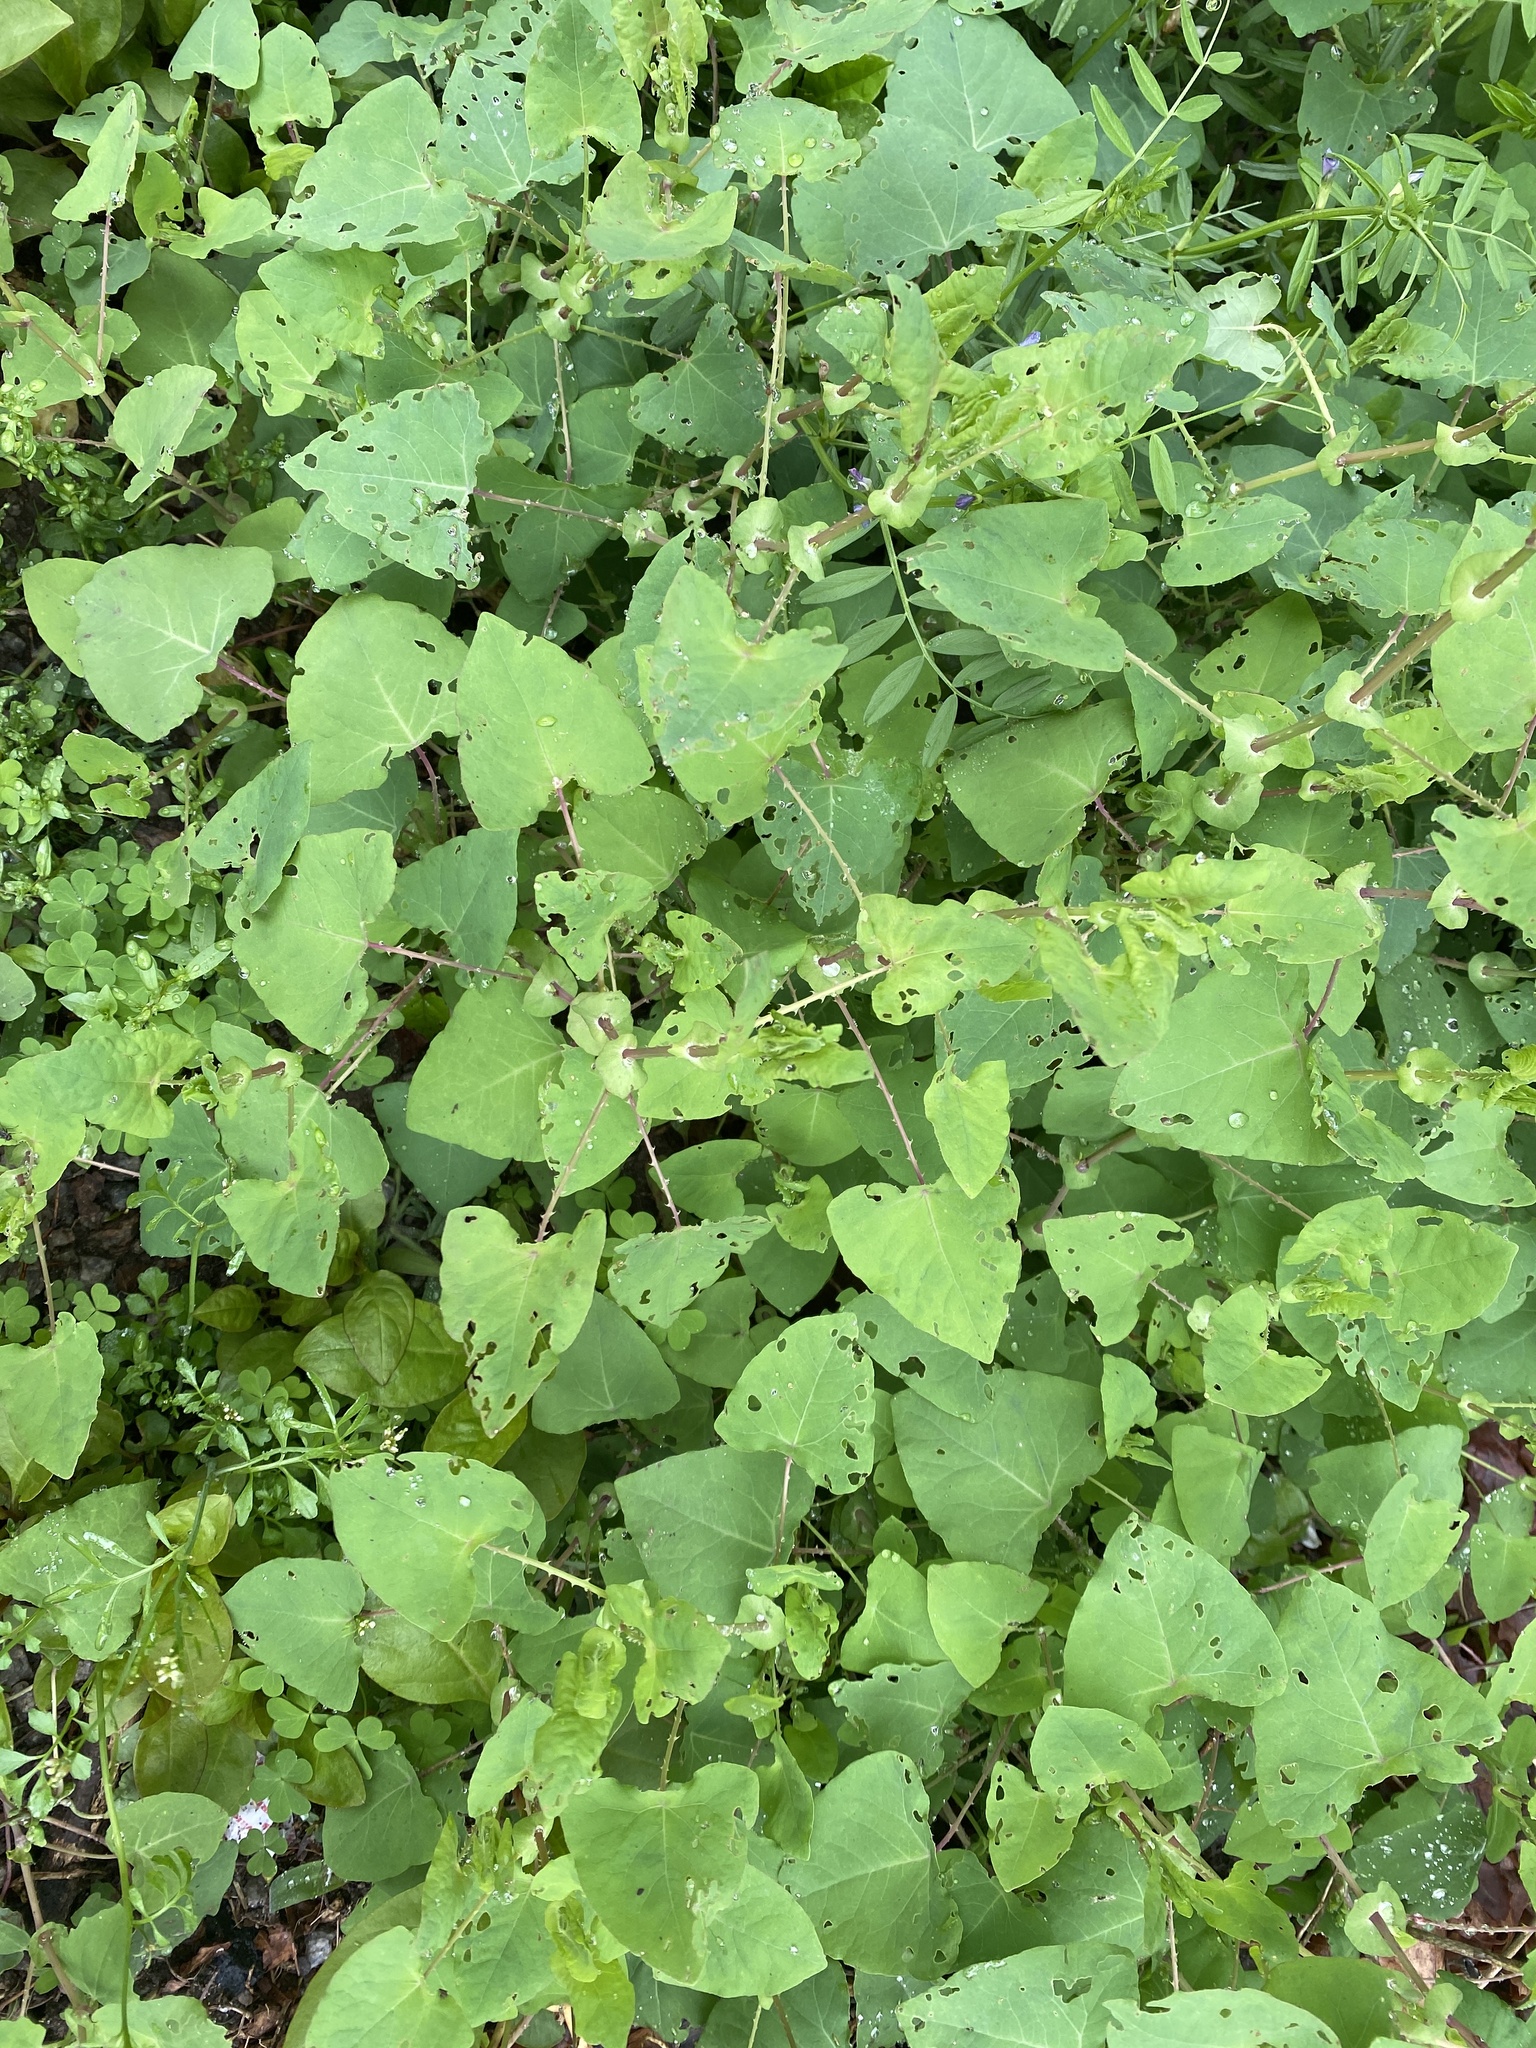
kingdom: Plantae
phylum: Tracheophyta
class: Magnoliopsida
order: Caryophyllales
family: Polygonaceae
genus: Persicaria
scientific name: Persicaria perfoliata
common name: Asiatic tearthumb
